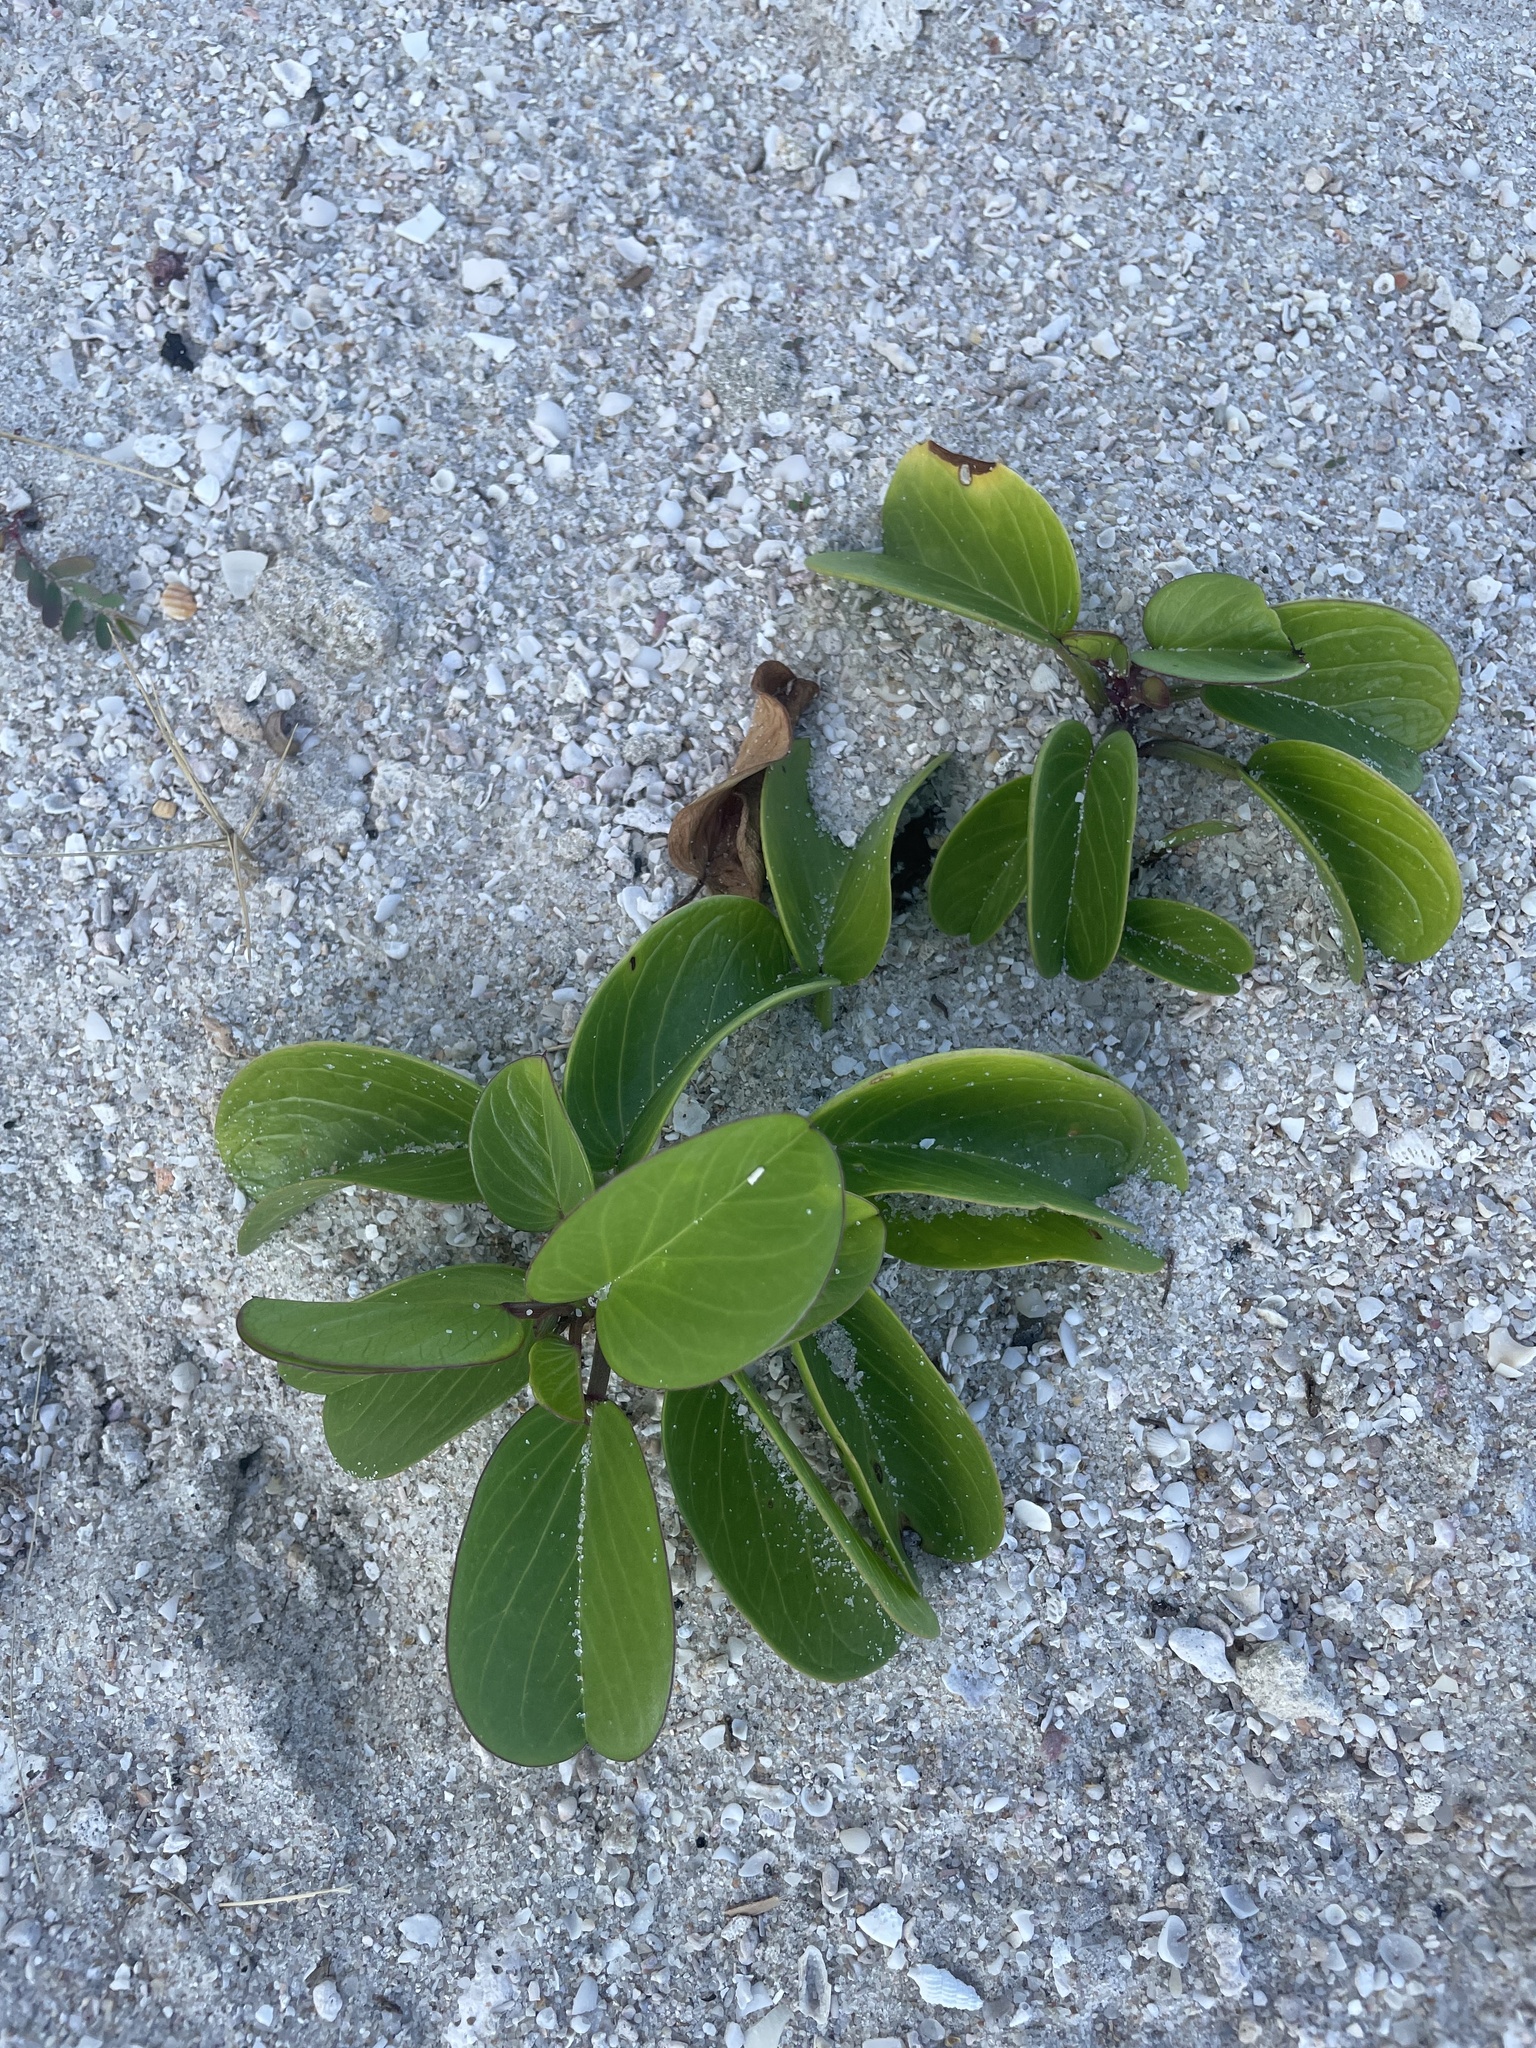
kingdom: Plantae
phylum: Tracheophyta
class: Magnoliopsida
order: Solanales
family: Convolvulaceae
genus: Ipomoea
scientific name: Ipomoea pes-caprae
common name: Beach morning glory
